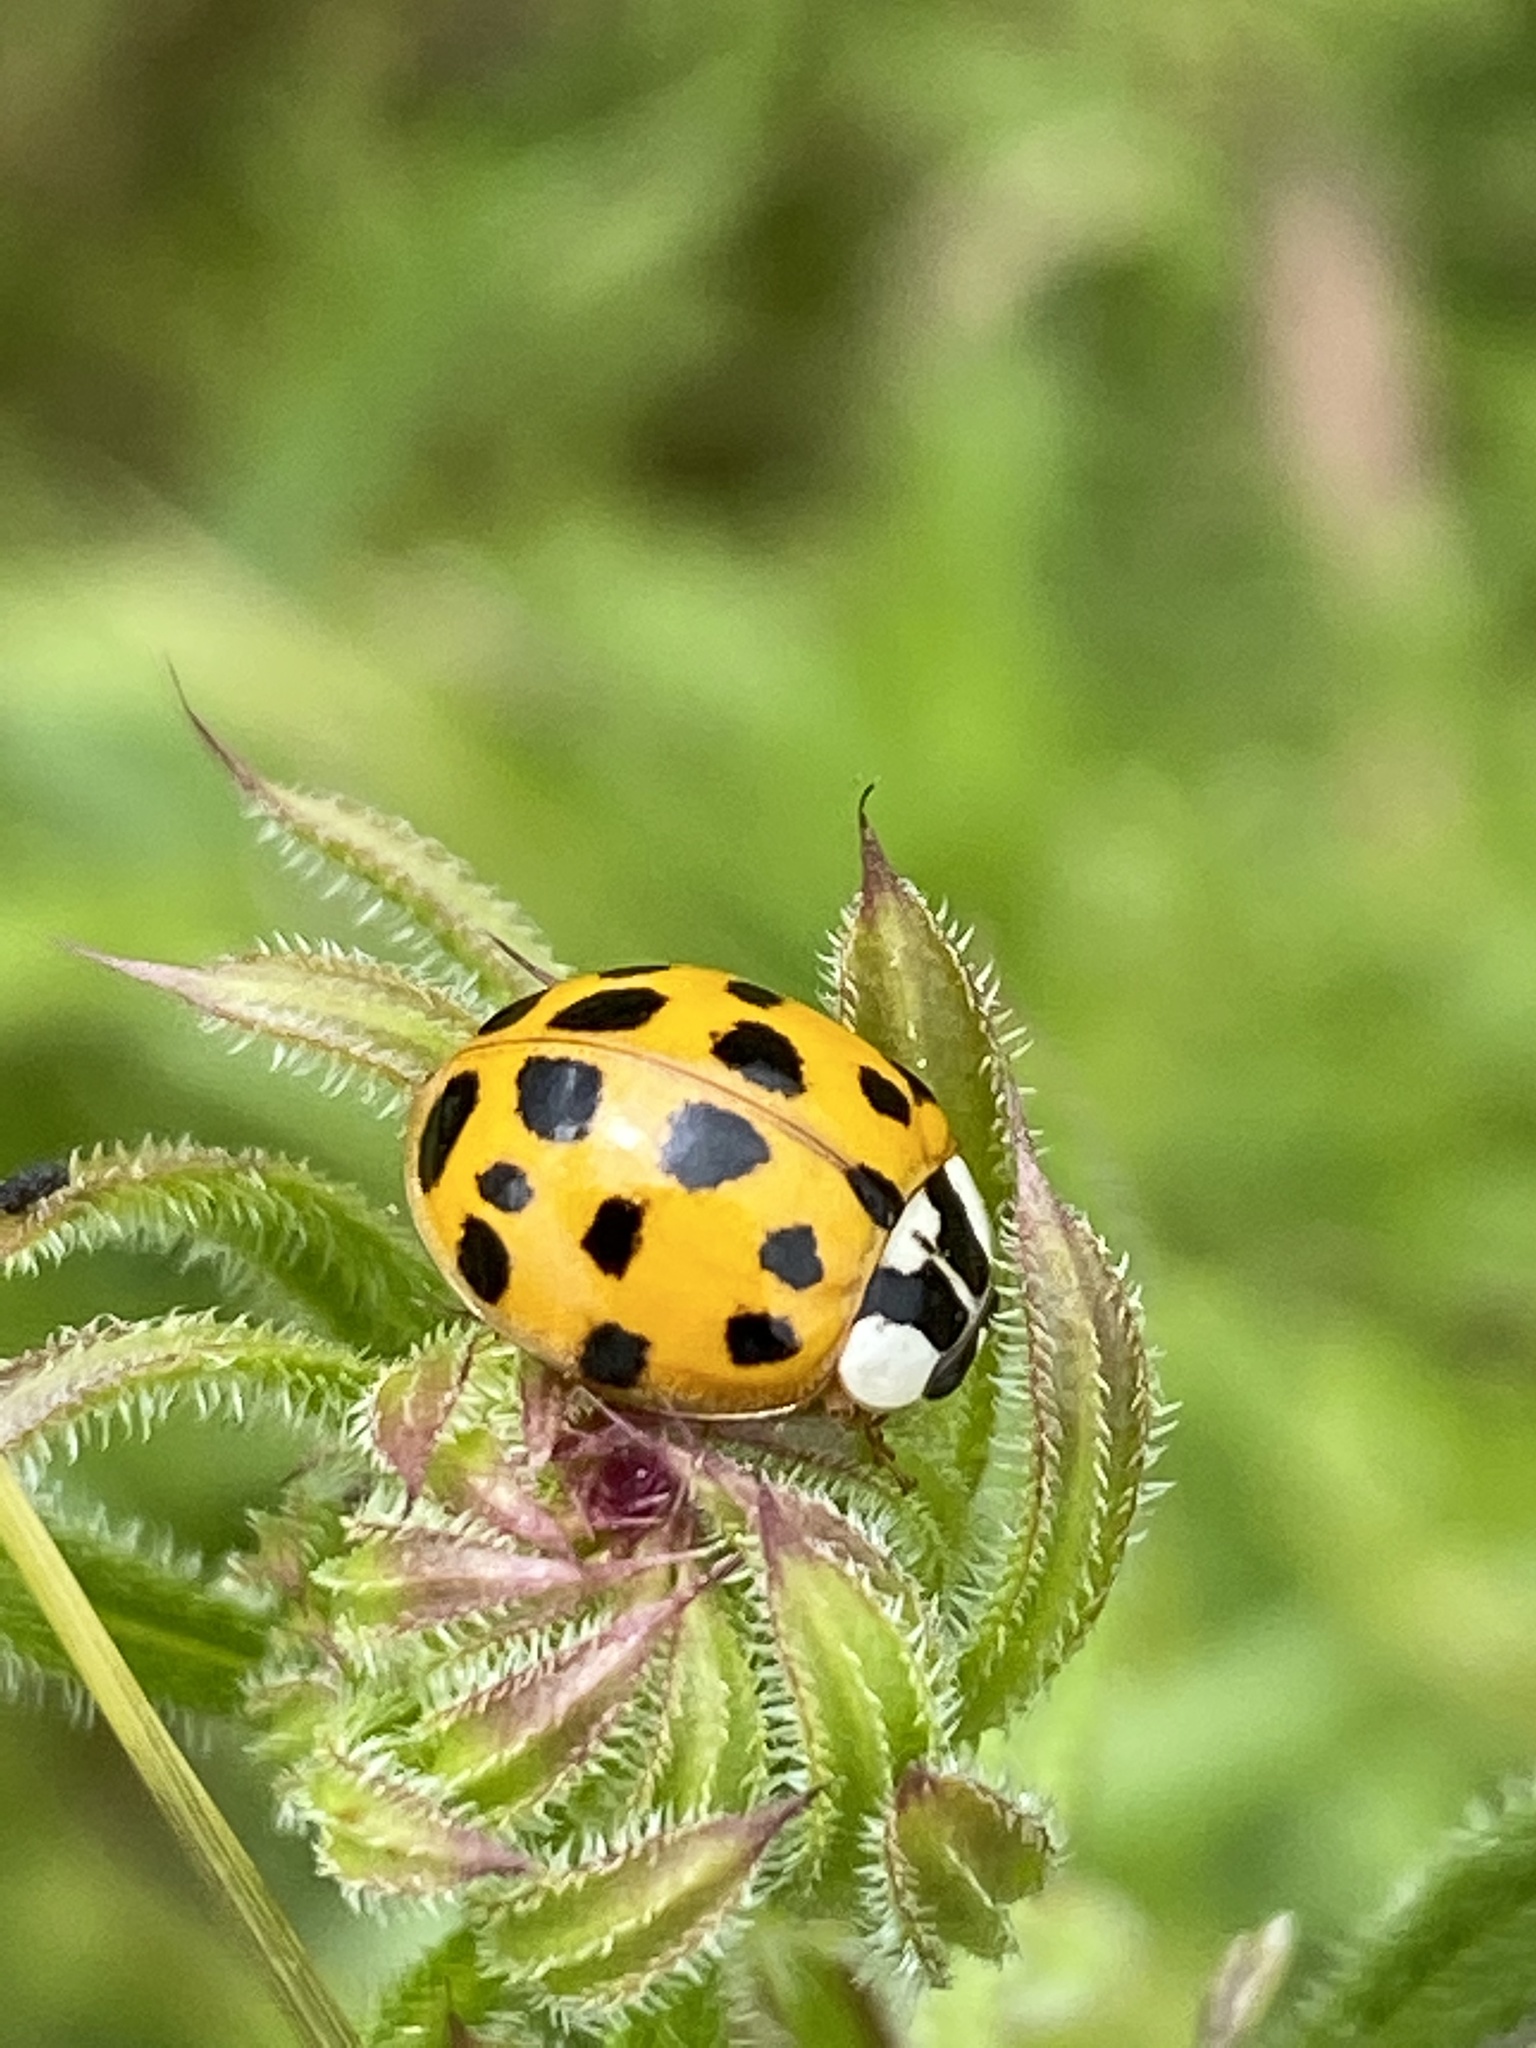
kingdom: Animalia
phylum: Arthropoda
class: Insecta
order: Coleoptera
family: Coccinellidae
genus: Harmonia
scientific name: Harmonia axyridis
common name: Harlequin ladybird
